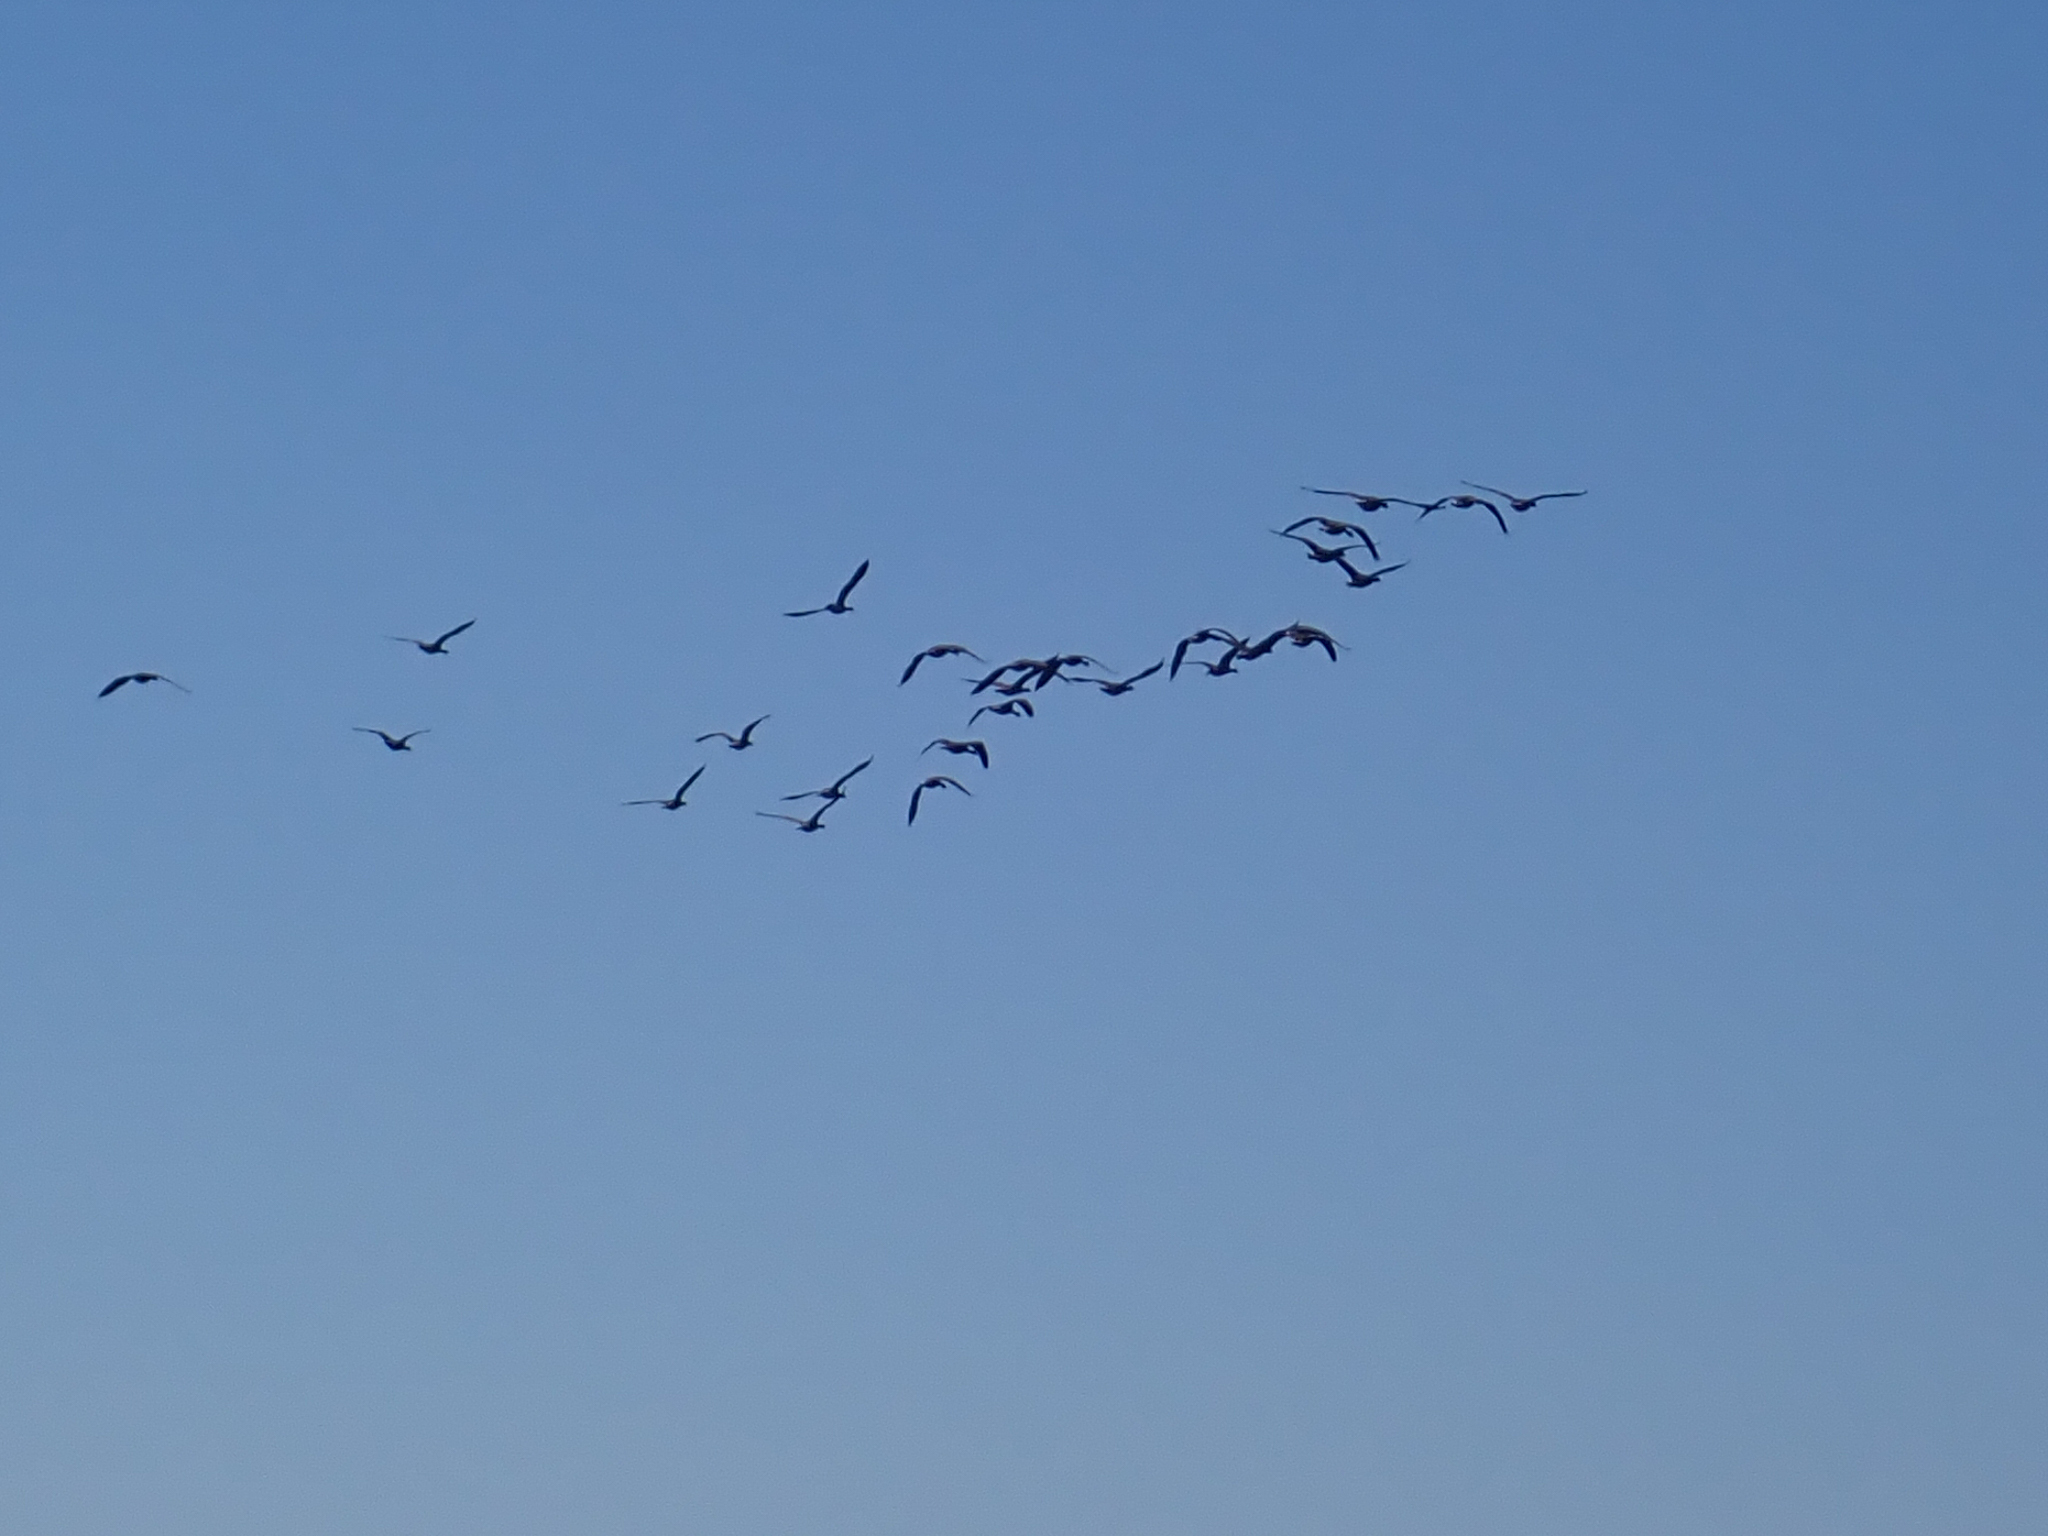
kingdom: Animalia
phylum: Chordata
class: Aves
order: Anseriformes
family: Anatidae
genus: Branta
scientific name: Branta canadensis
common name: Canada goose
